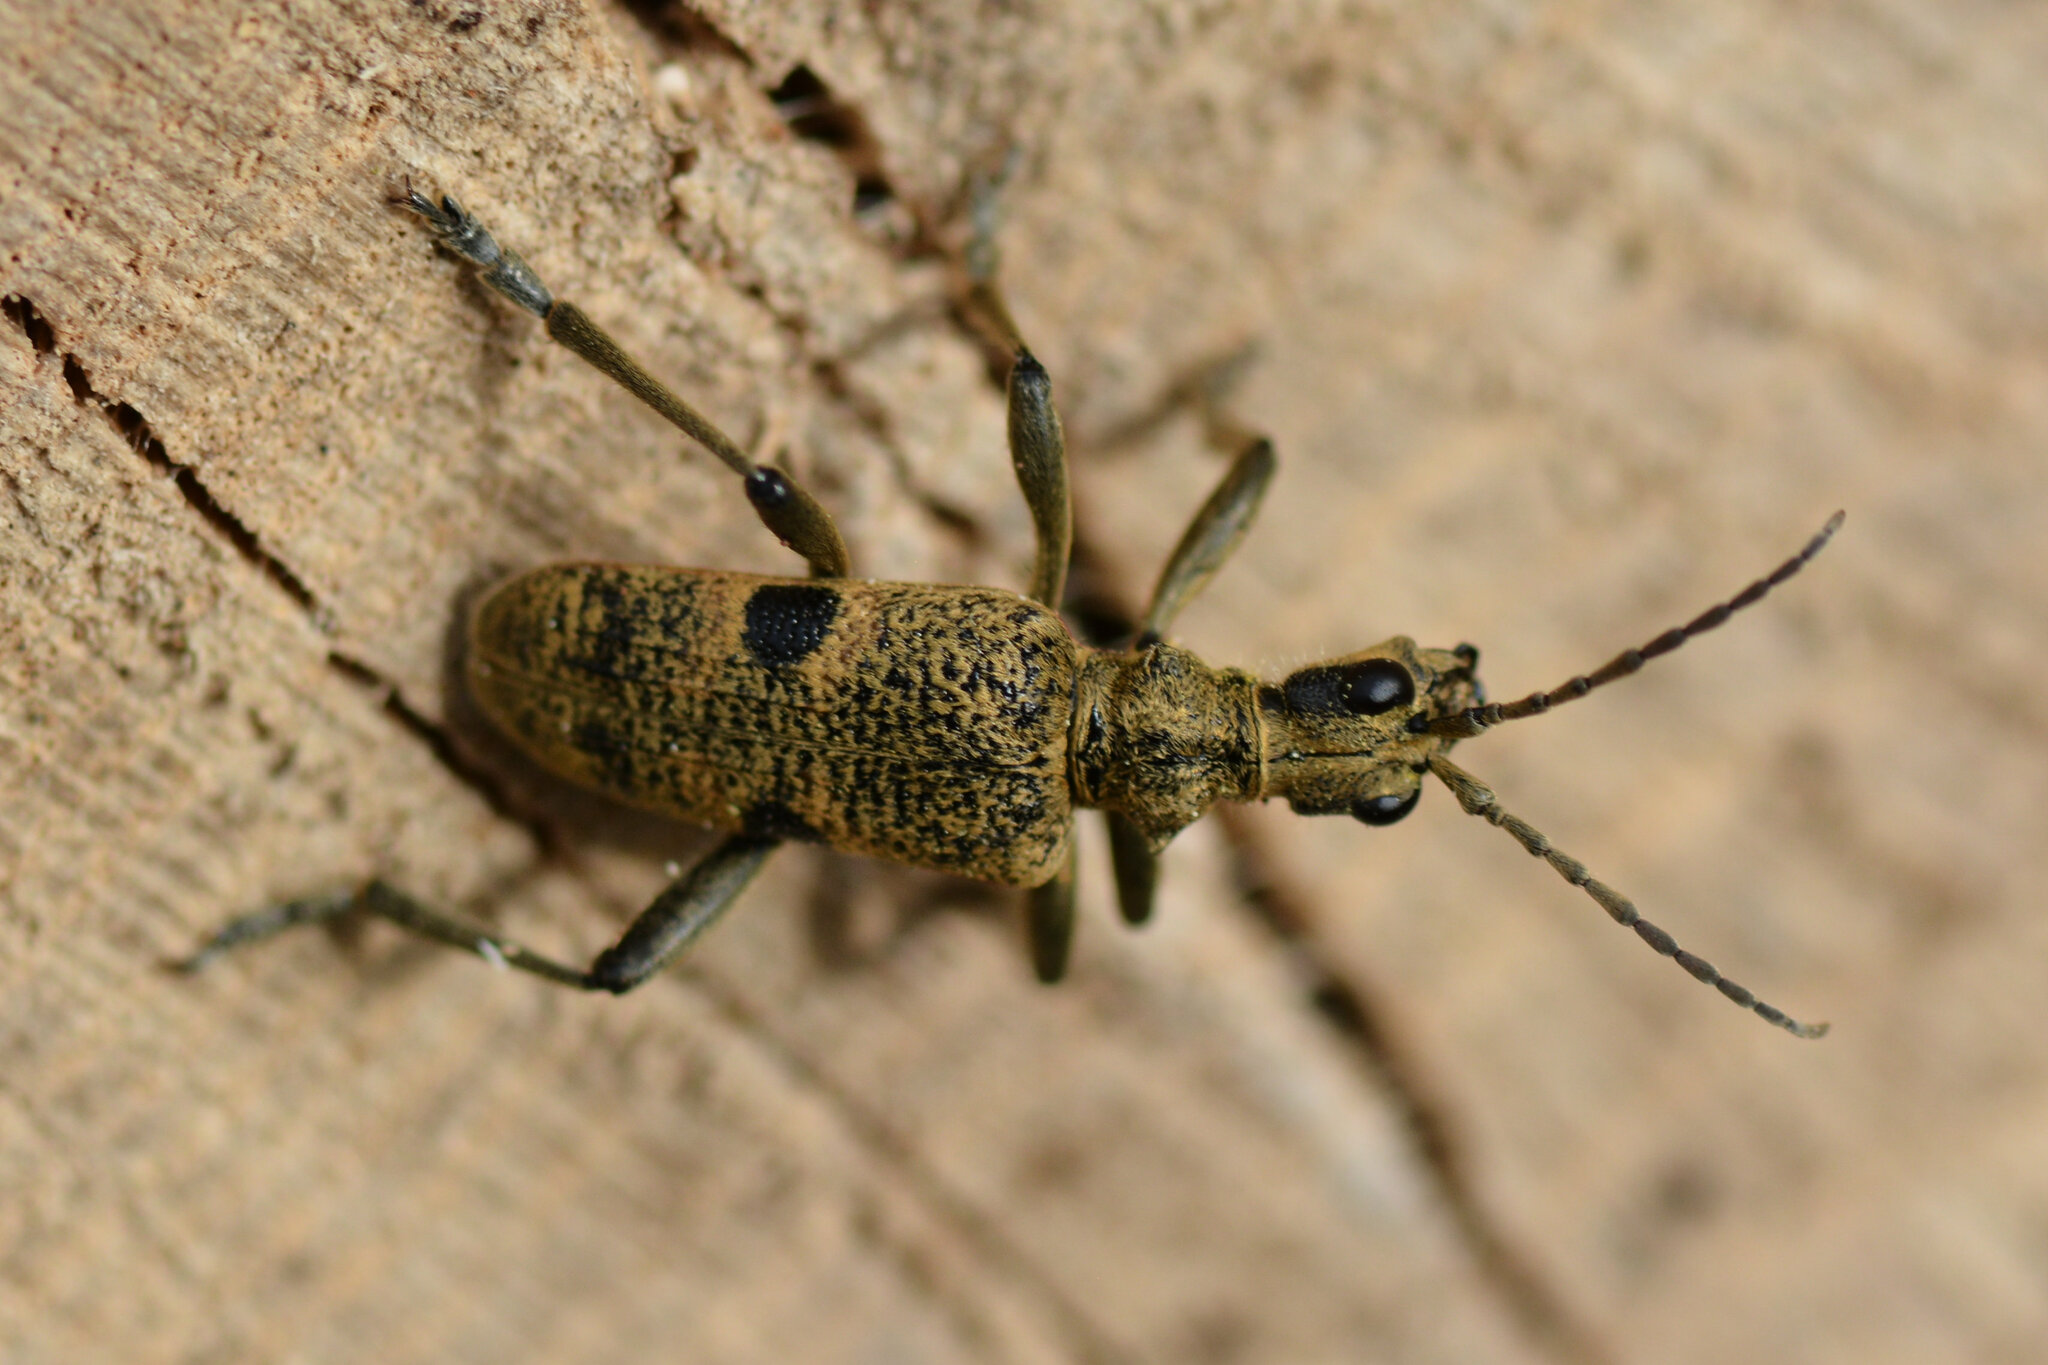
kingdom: Animalia
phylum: Arthropoda
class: Insecta
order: Coleoptera
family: Cerambycidae
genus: Rhagium
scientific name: Rhagium mordax
